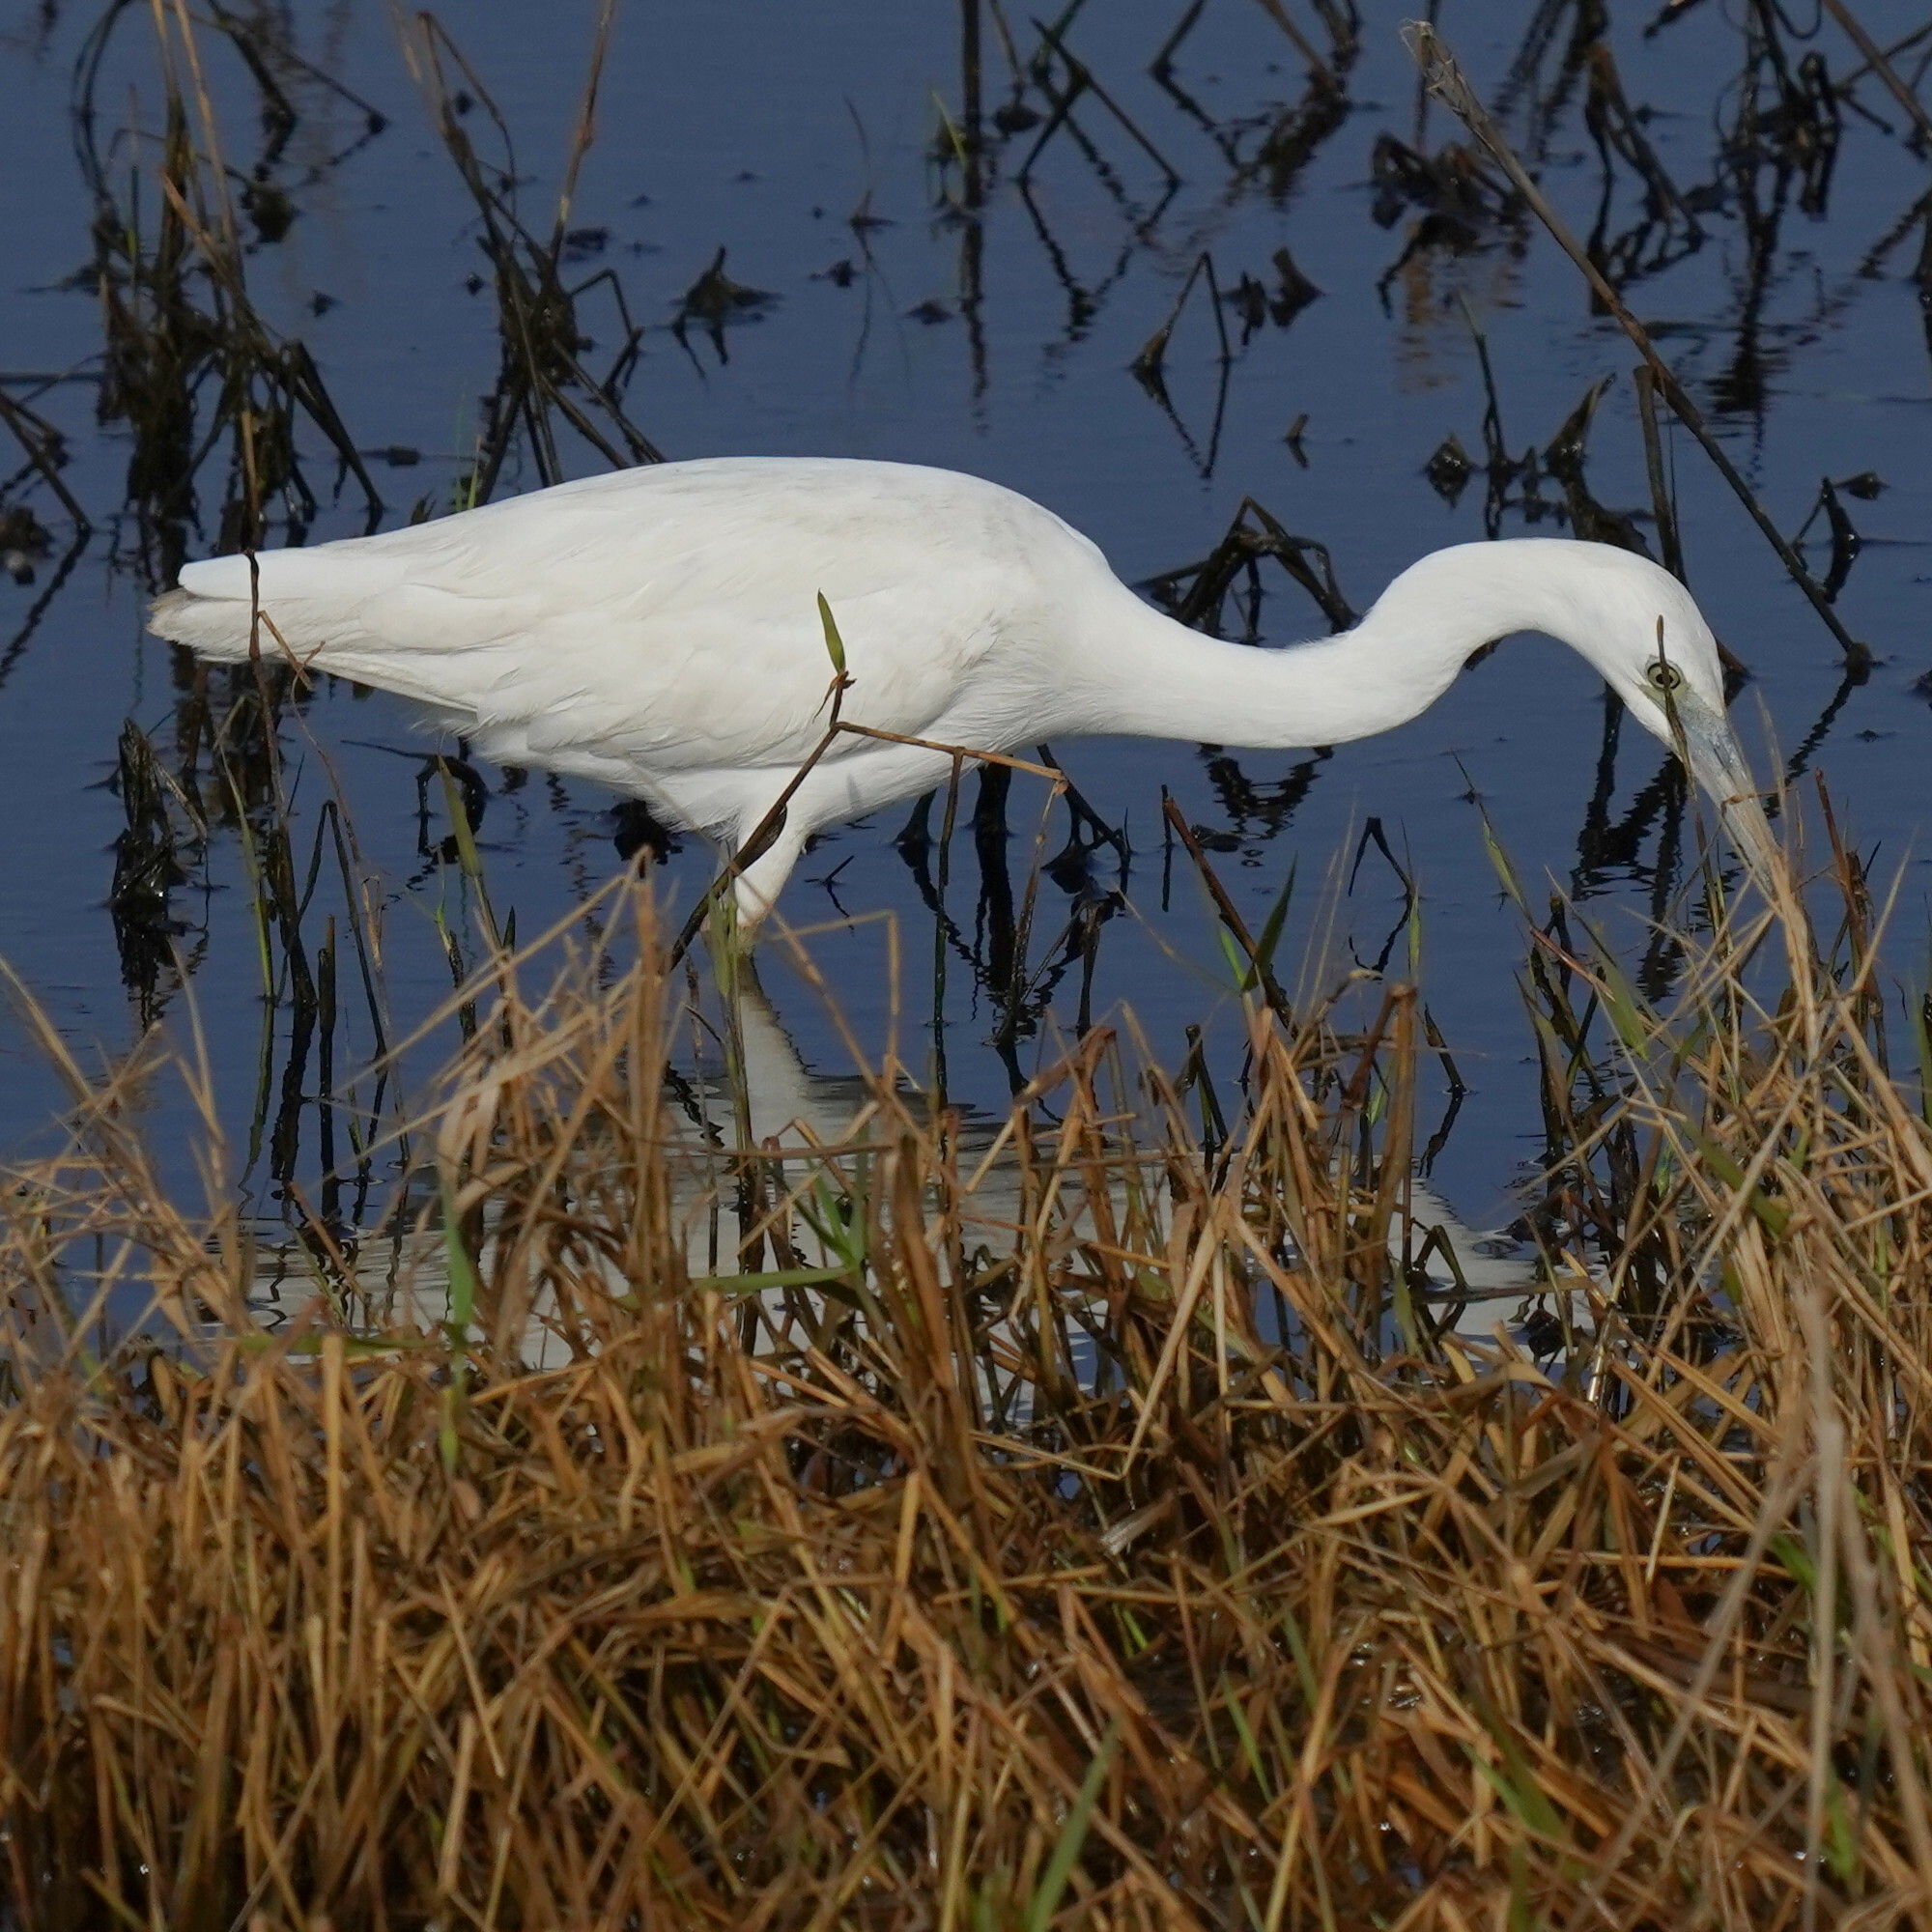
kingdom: Animalia
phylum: Chordata
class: Aves
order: Pelecaniformes
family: Ardeidae
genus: Egretta
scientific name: Egretta caerulea
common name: Little blue heron
